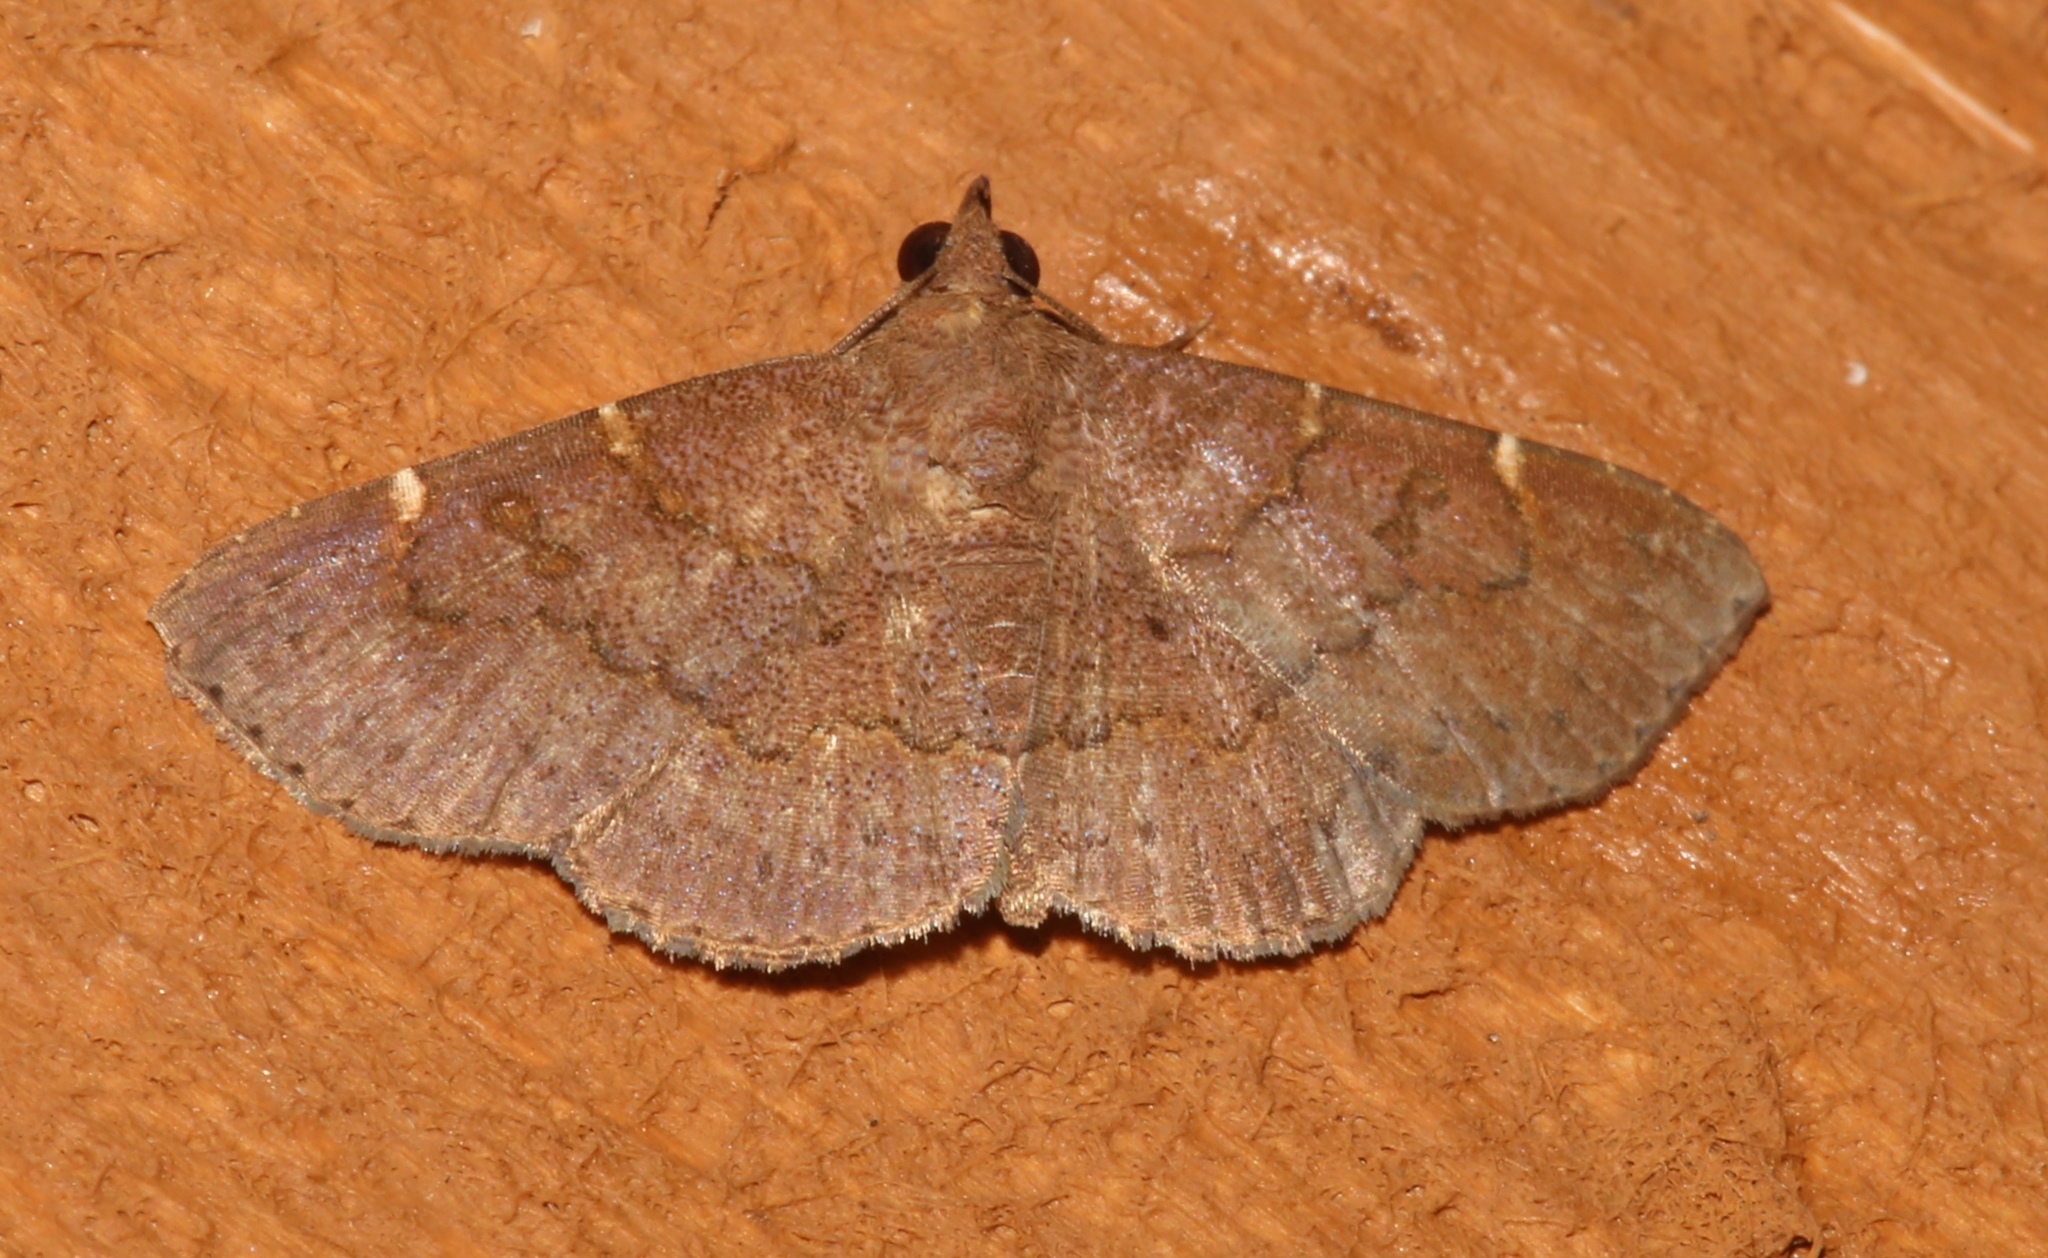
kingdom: Animalia
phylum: Arthropoda
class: Insecta
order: Lepidoptera
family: Erebidae
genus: Antiblemma
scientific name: Antiblemma perva
